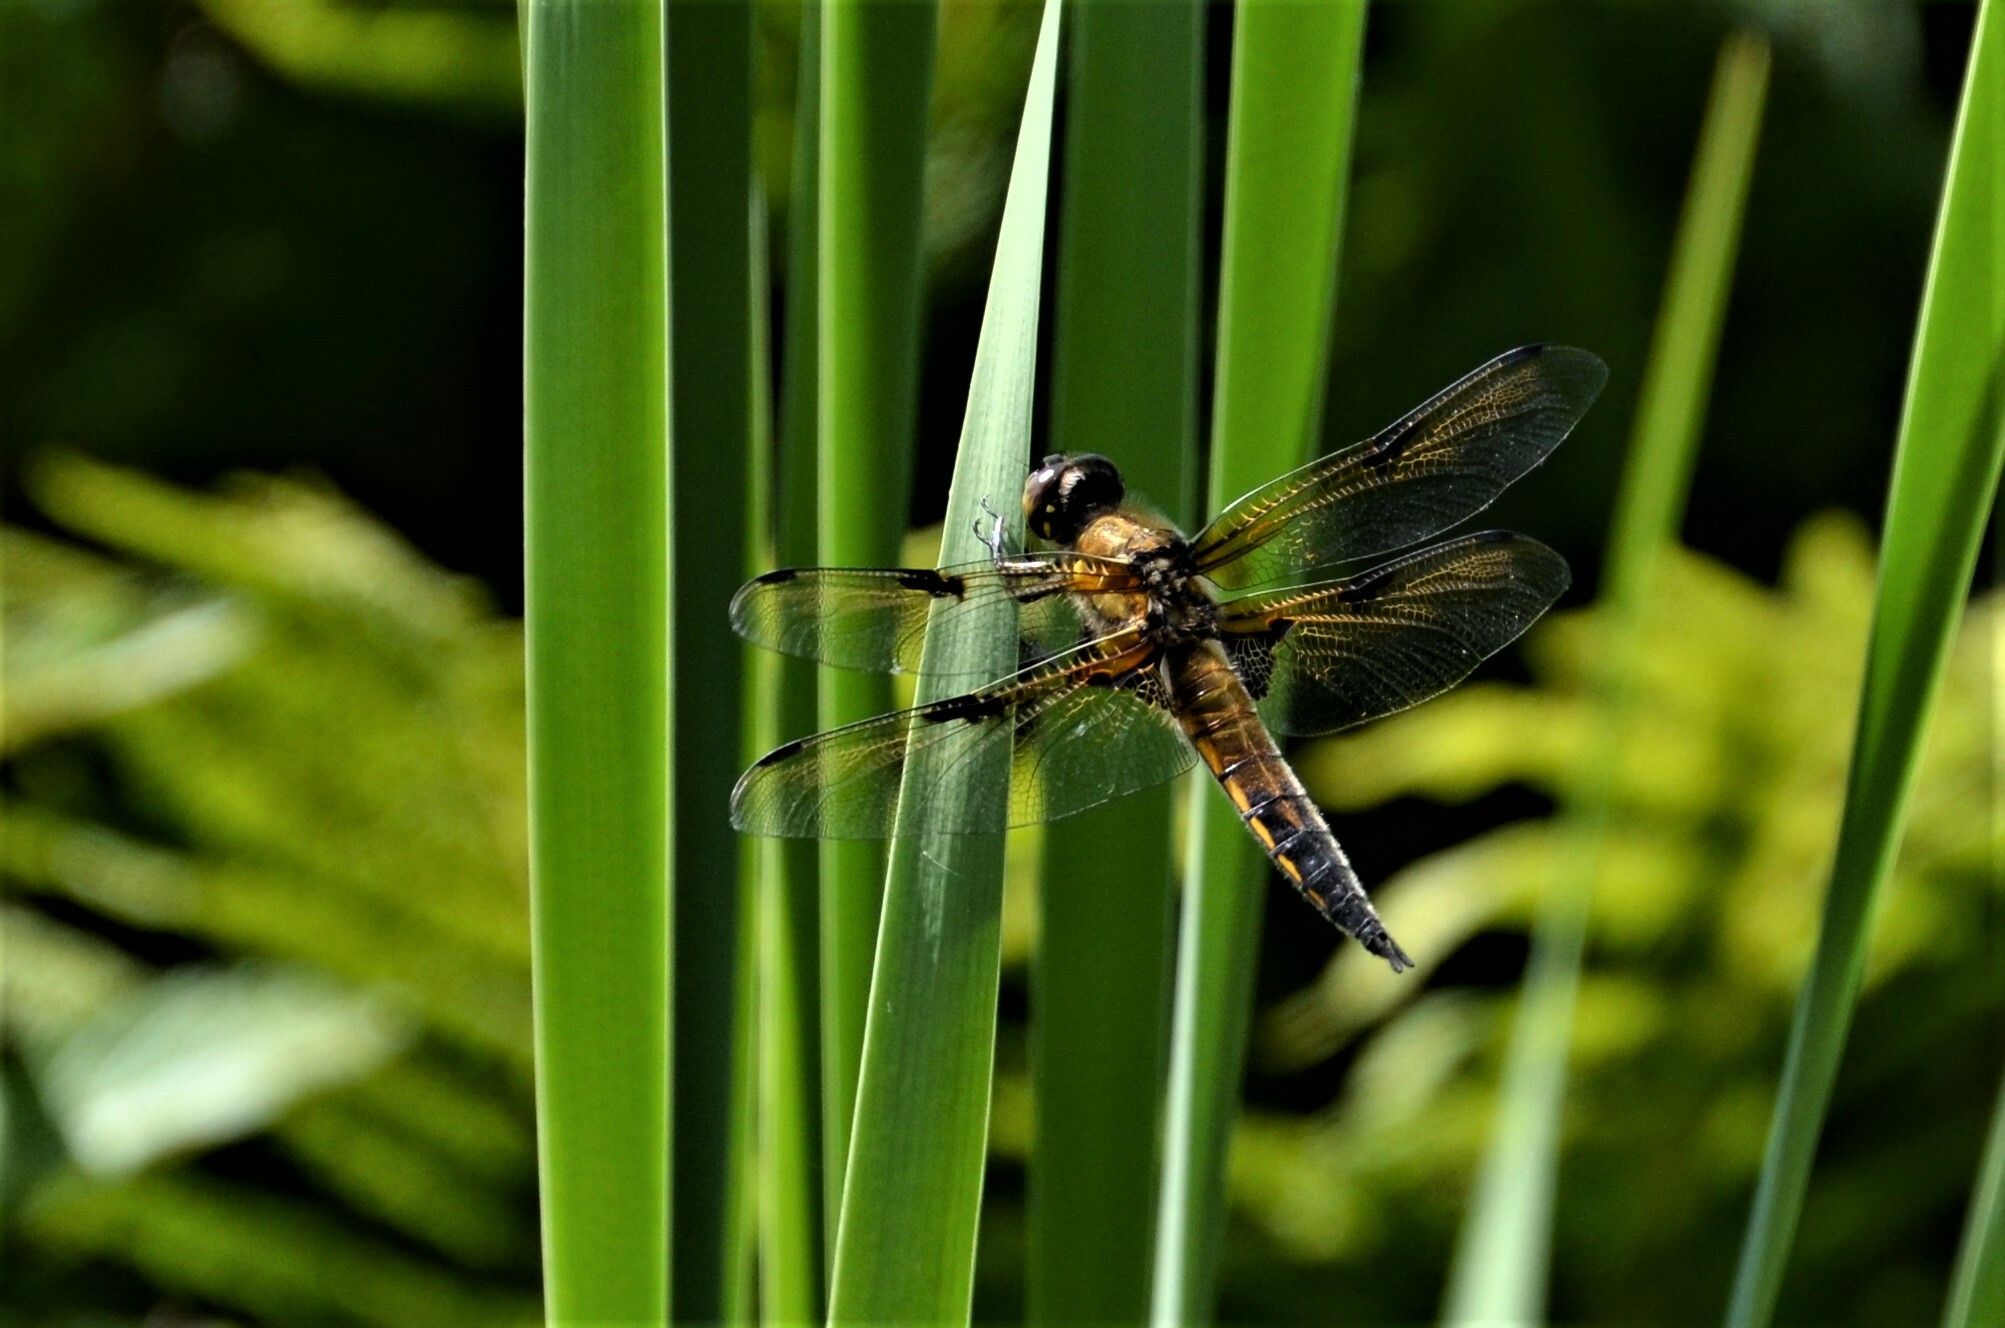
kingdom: Animalia
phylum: Arthropoda
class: Insecta
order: Odonata
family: Libellulidae
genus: Libellula
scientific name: Libellula quadrimaculata
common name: Four-spotted chaser
